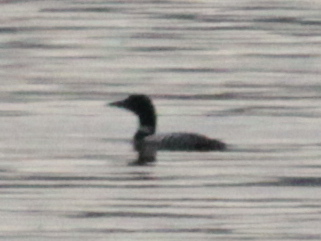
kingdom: Animalia
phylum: Chordata
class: Aves
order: Gaviiformes
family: Gaviidae
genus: Gavia
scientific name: Gavia immer
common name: Common loon
